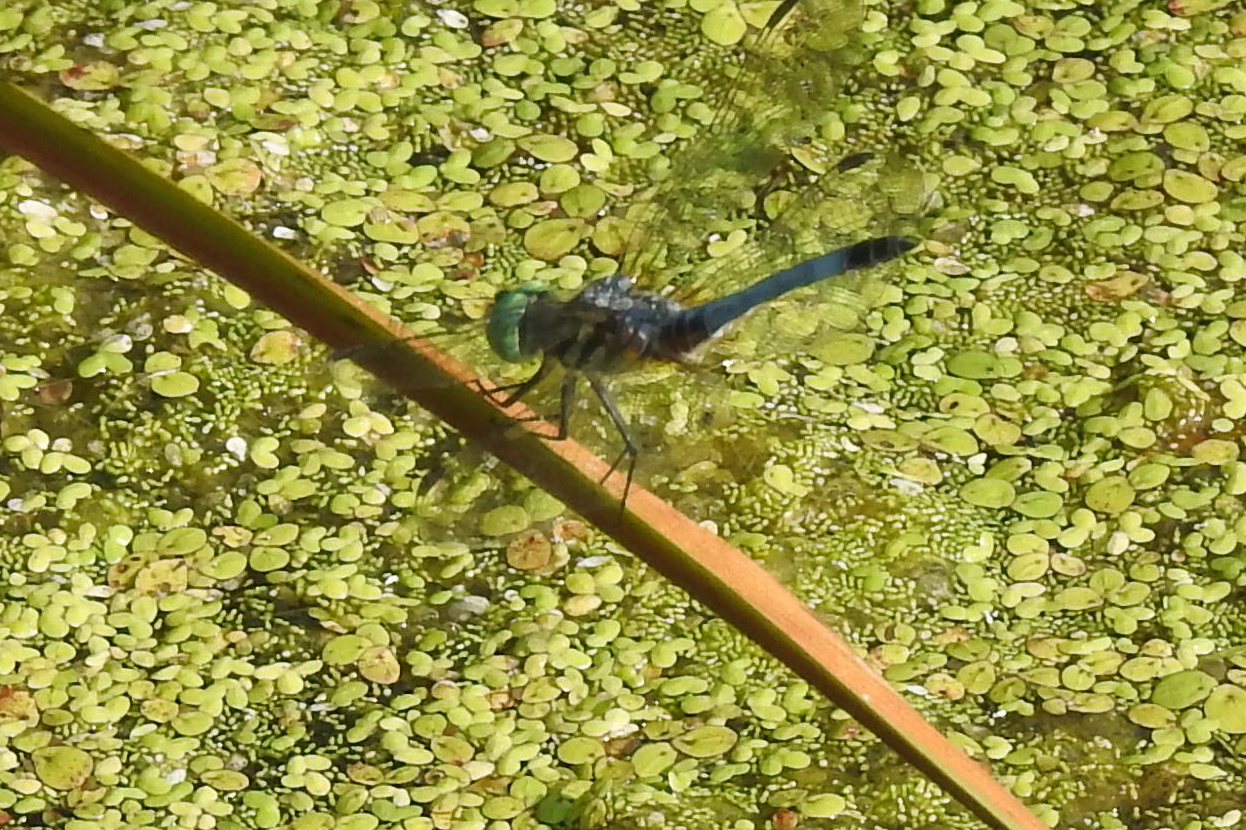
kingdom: Animalia
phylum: Arthropoda
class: Insecta
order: Odonata
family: Libellulidae
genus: Pachydiplax
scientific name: Pachydiplax longipennis
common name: Blue dasher
